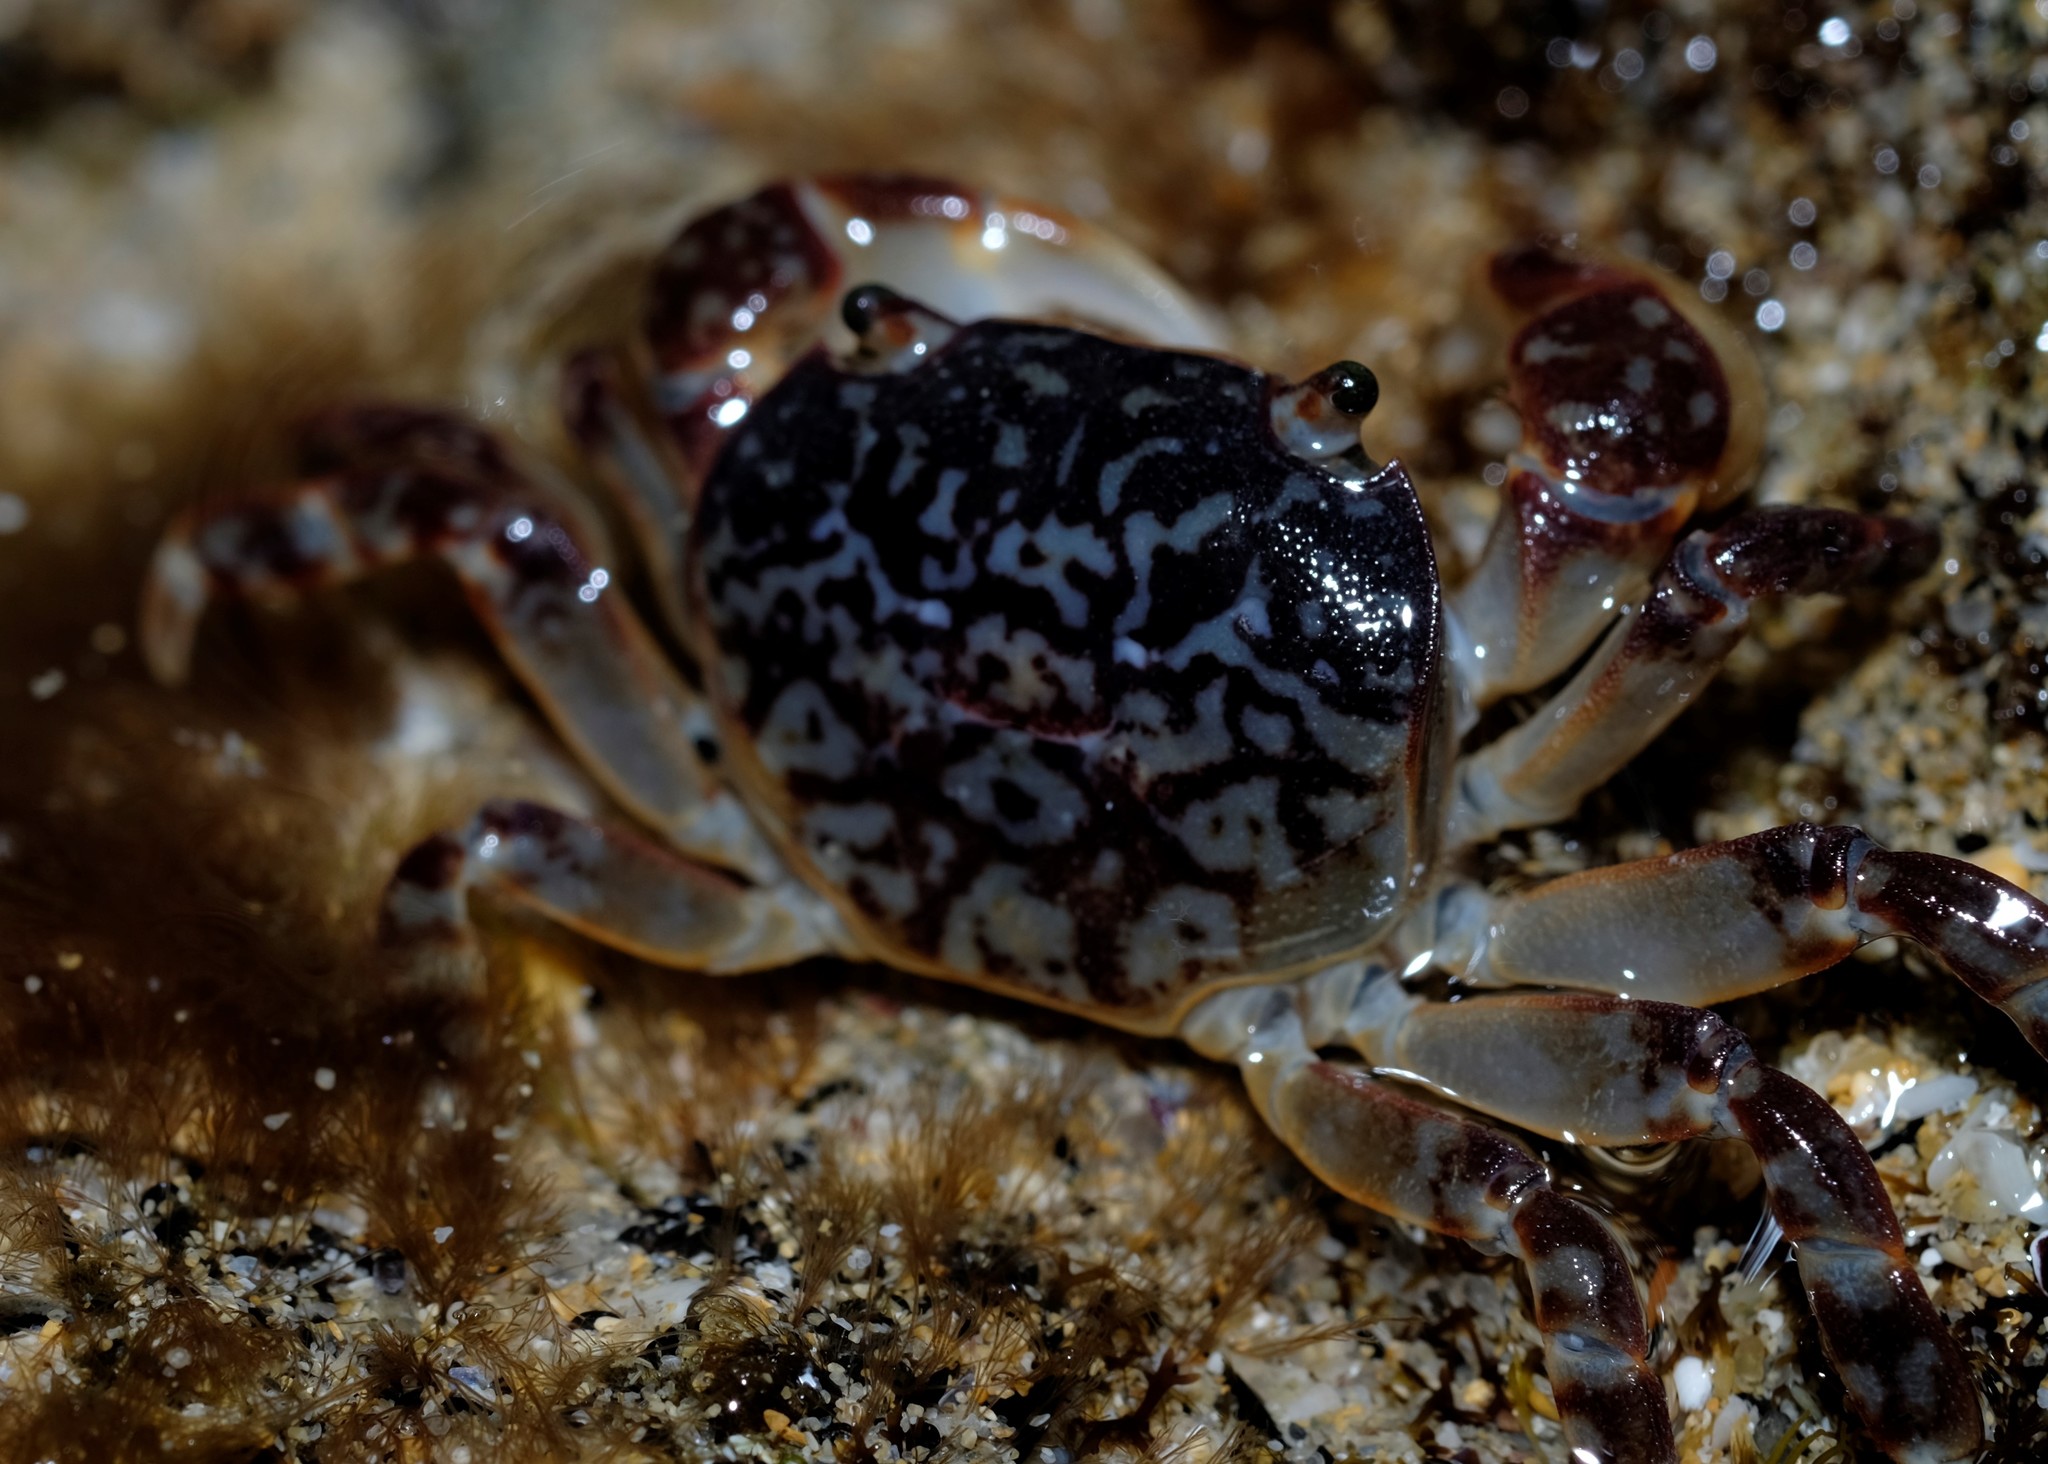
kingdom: Animalia
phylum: Arthropoda
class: Malacostraca
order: Decapoda
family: Varunidae
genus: Cyclograpsus
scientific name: Cyclograpsus granulosus
